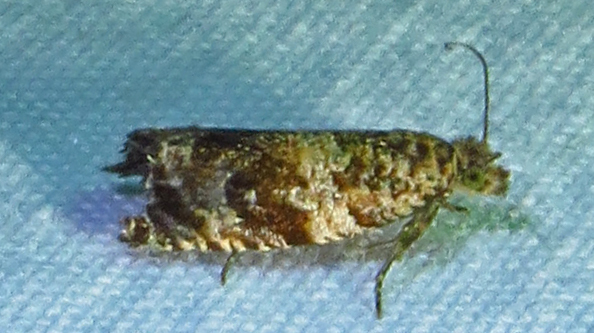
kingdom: Animalia
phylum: Arthropoda
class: Insecta
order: Lepidoptera
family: Tortricidae
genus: Celypha
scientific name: Celypha cespitana
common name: Thyme marble
